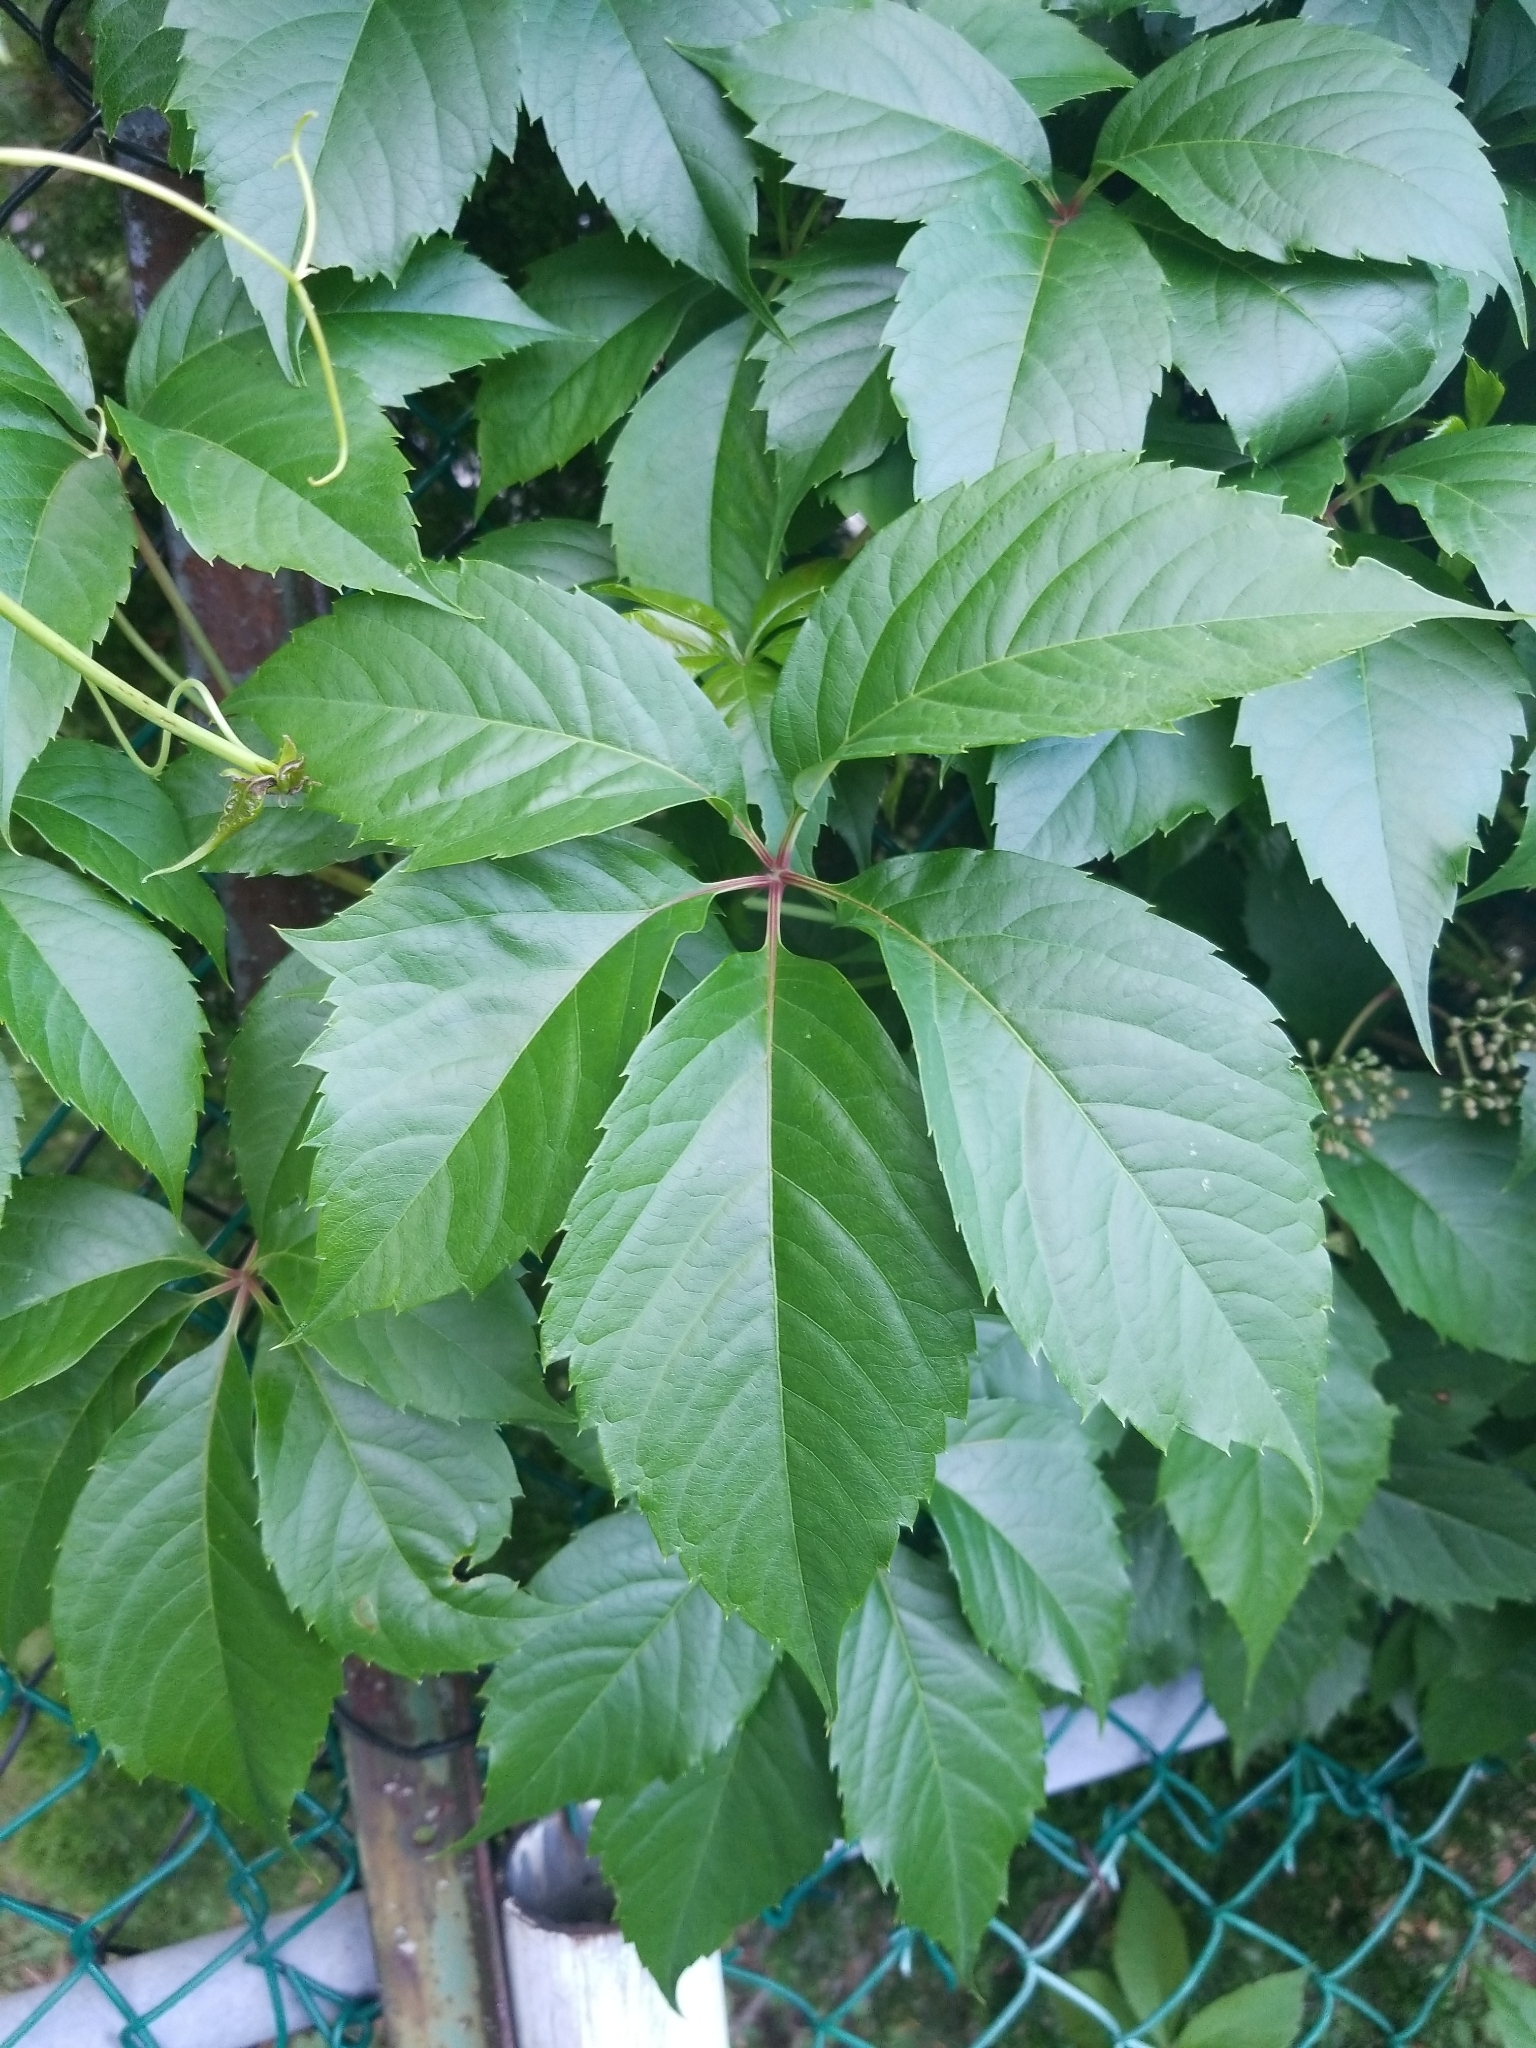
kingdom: Plantae
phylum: Tracheophyta
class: Magnoliopsida
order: Vitales
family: Vitaceae
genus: Parthenocissus
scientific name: Parthenocissus inserta
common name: False virginia-creeper
